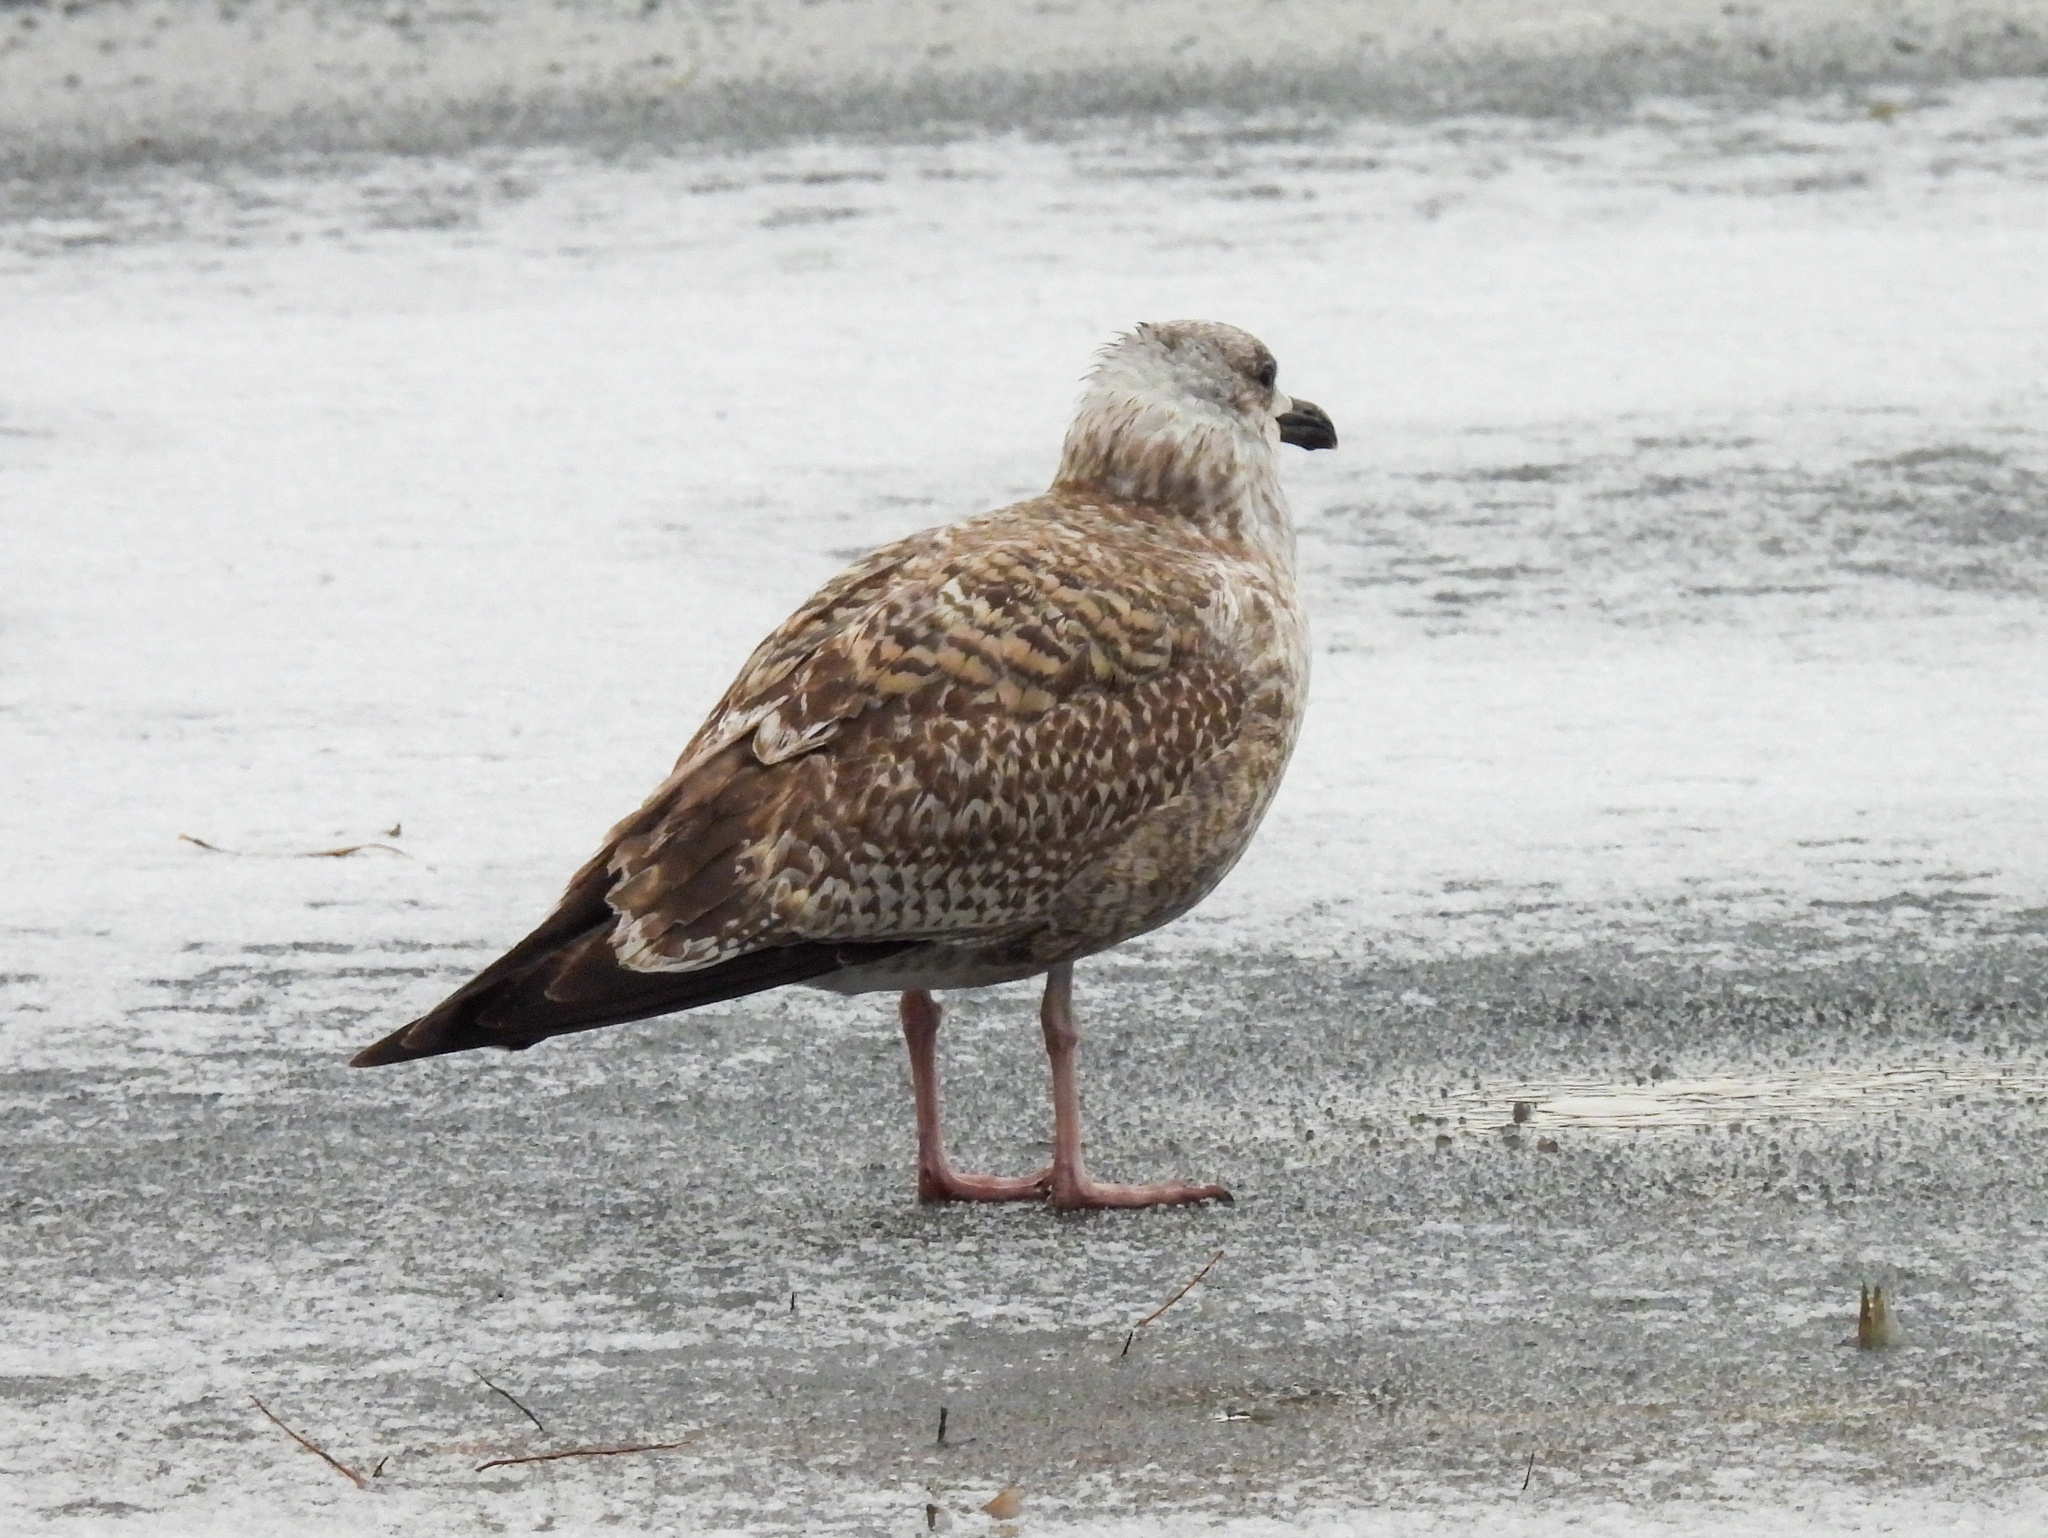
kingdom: Animalia
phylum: Chordata
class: Aves
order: Charadriiformes
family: Laridae
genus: Larus
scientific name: Larus argentatus
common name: Herring gull
